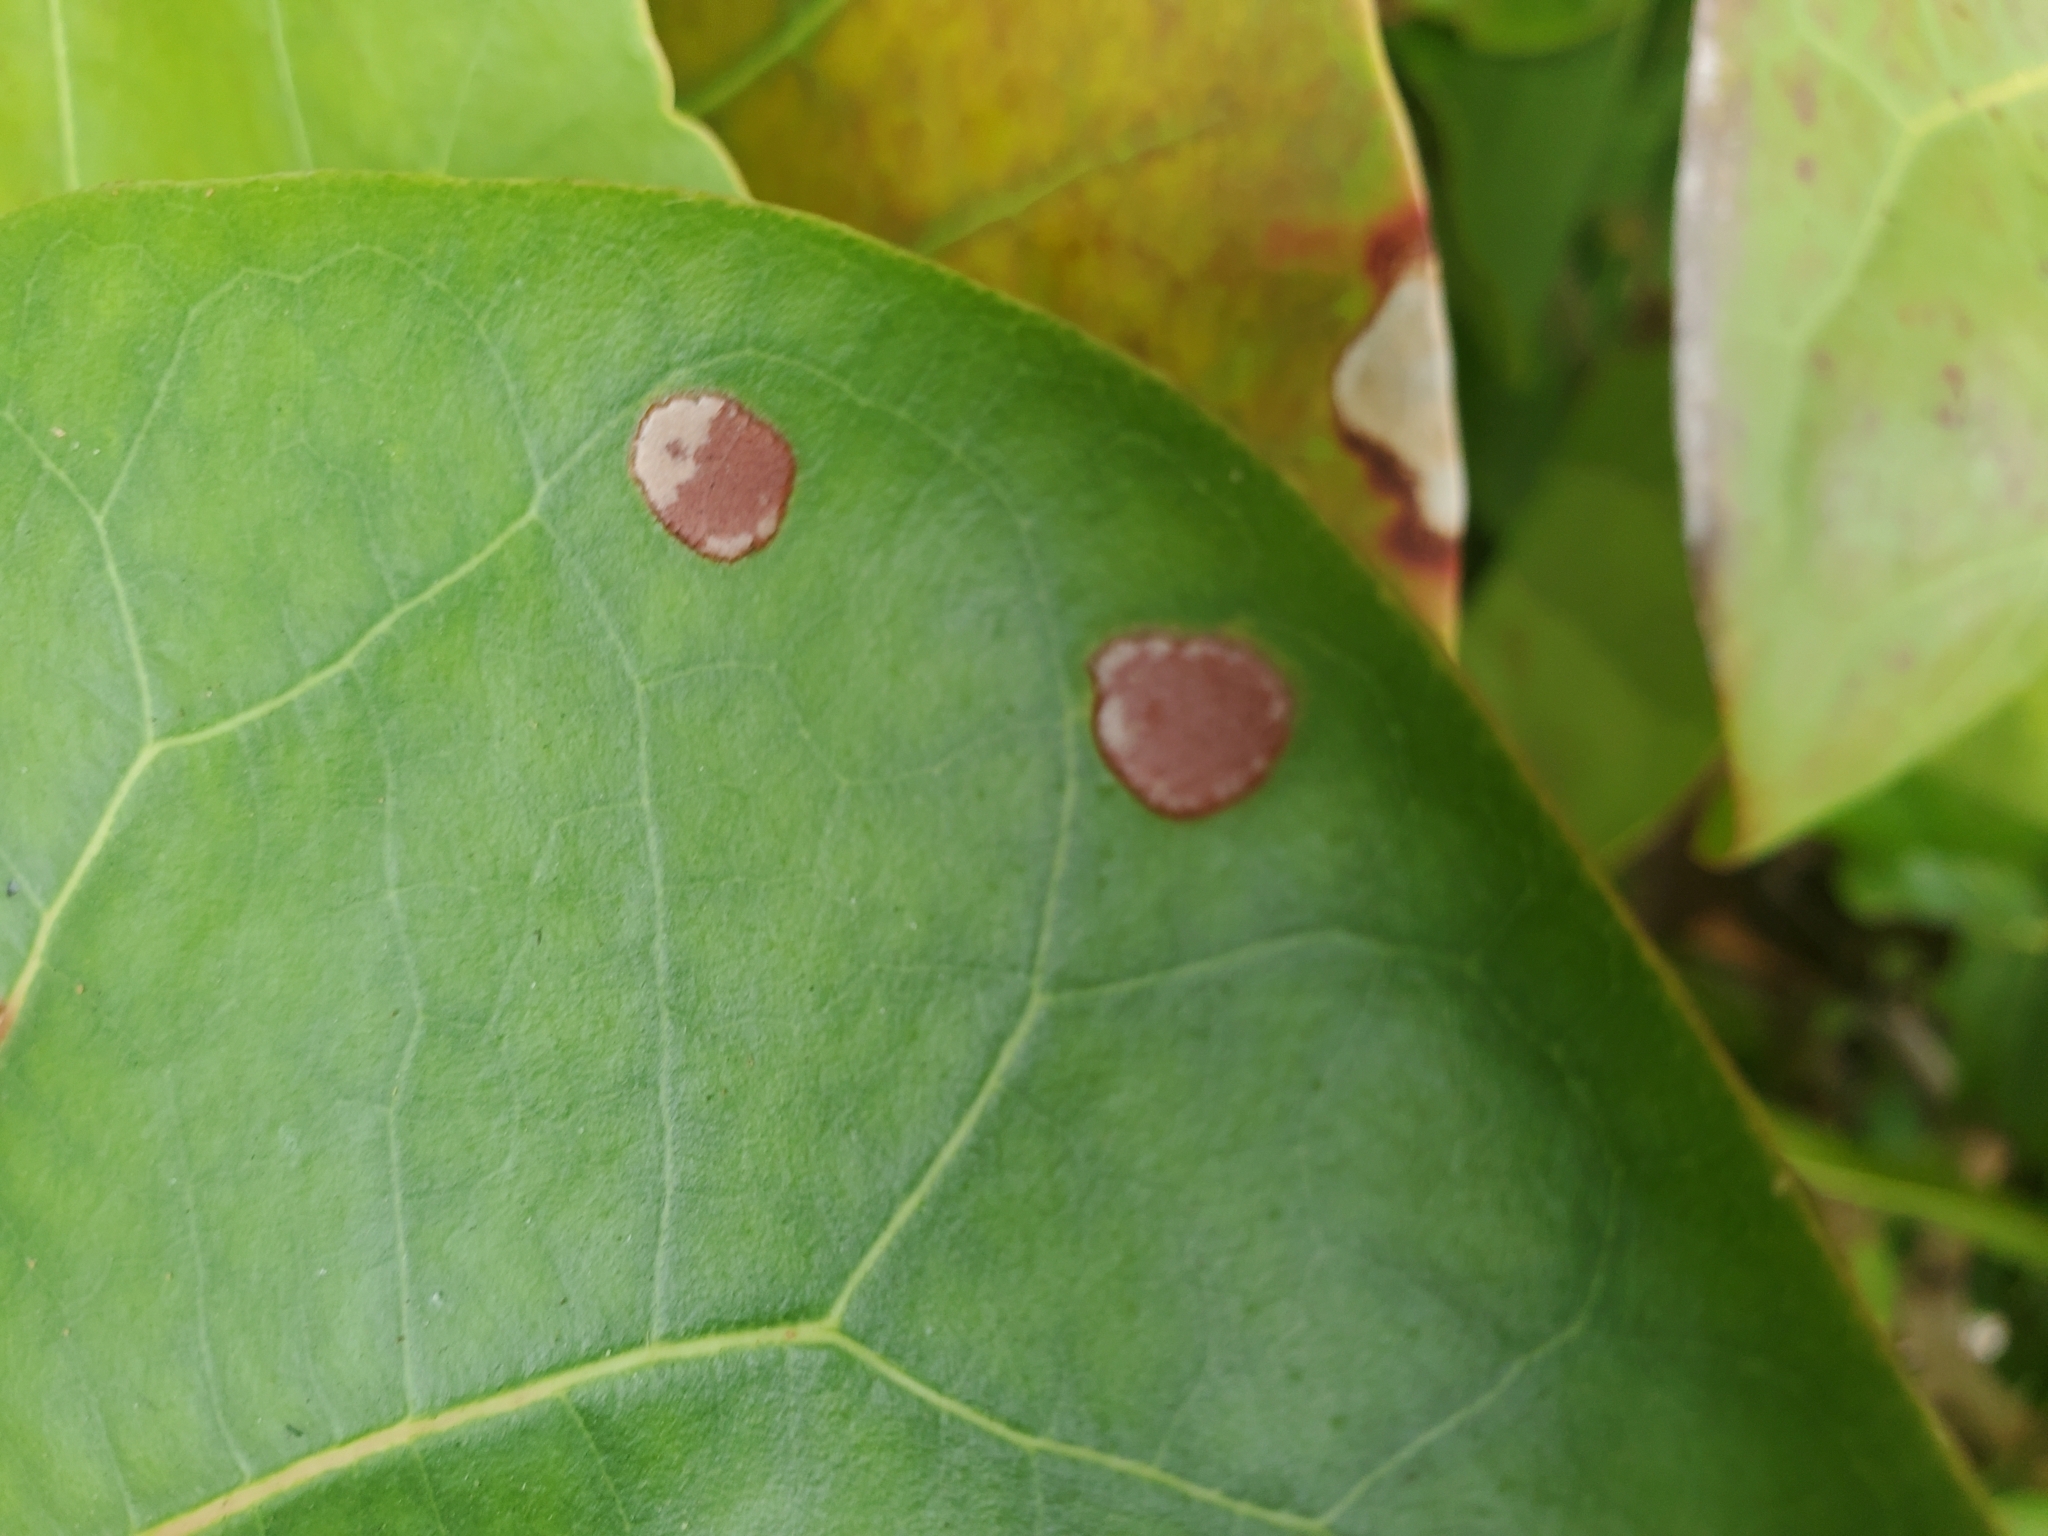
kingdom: Animalia
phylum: Arthropoda
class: Insecta
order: Diptera
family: Cecidomyiidae
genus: Ctenodactylomyia
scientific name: Ctenodactylomyia watsoni
